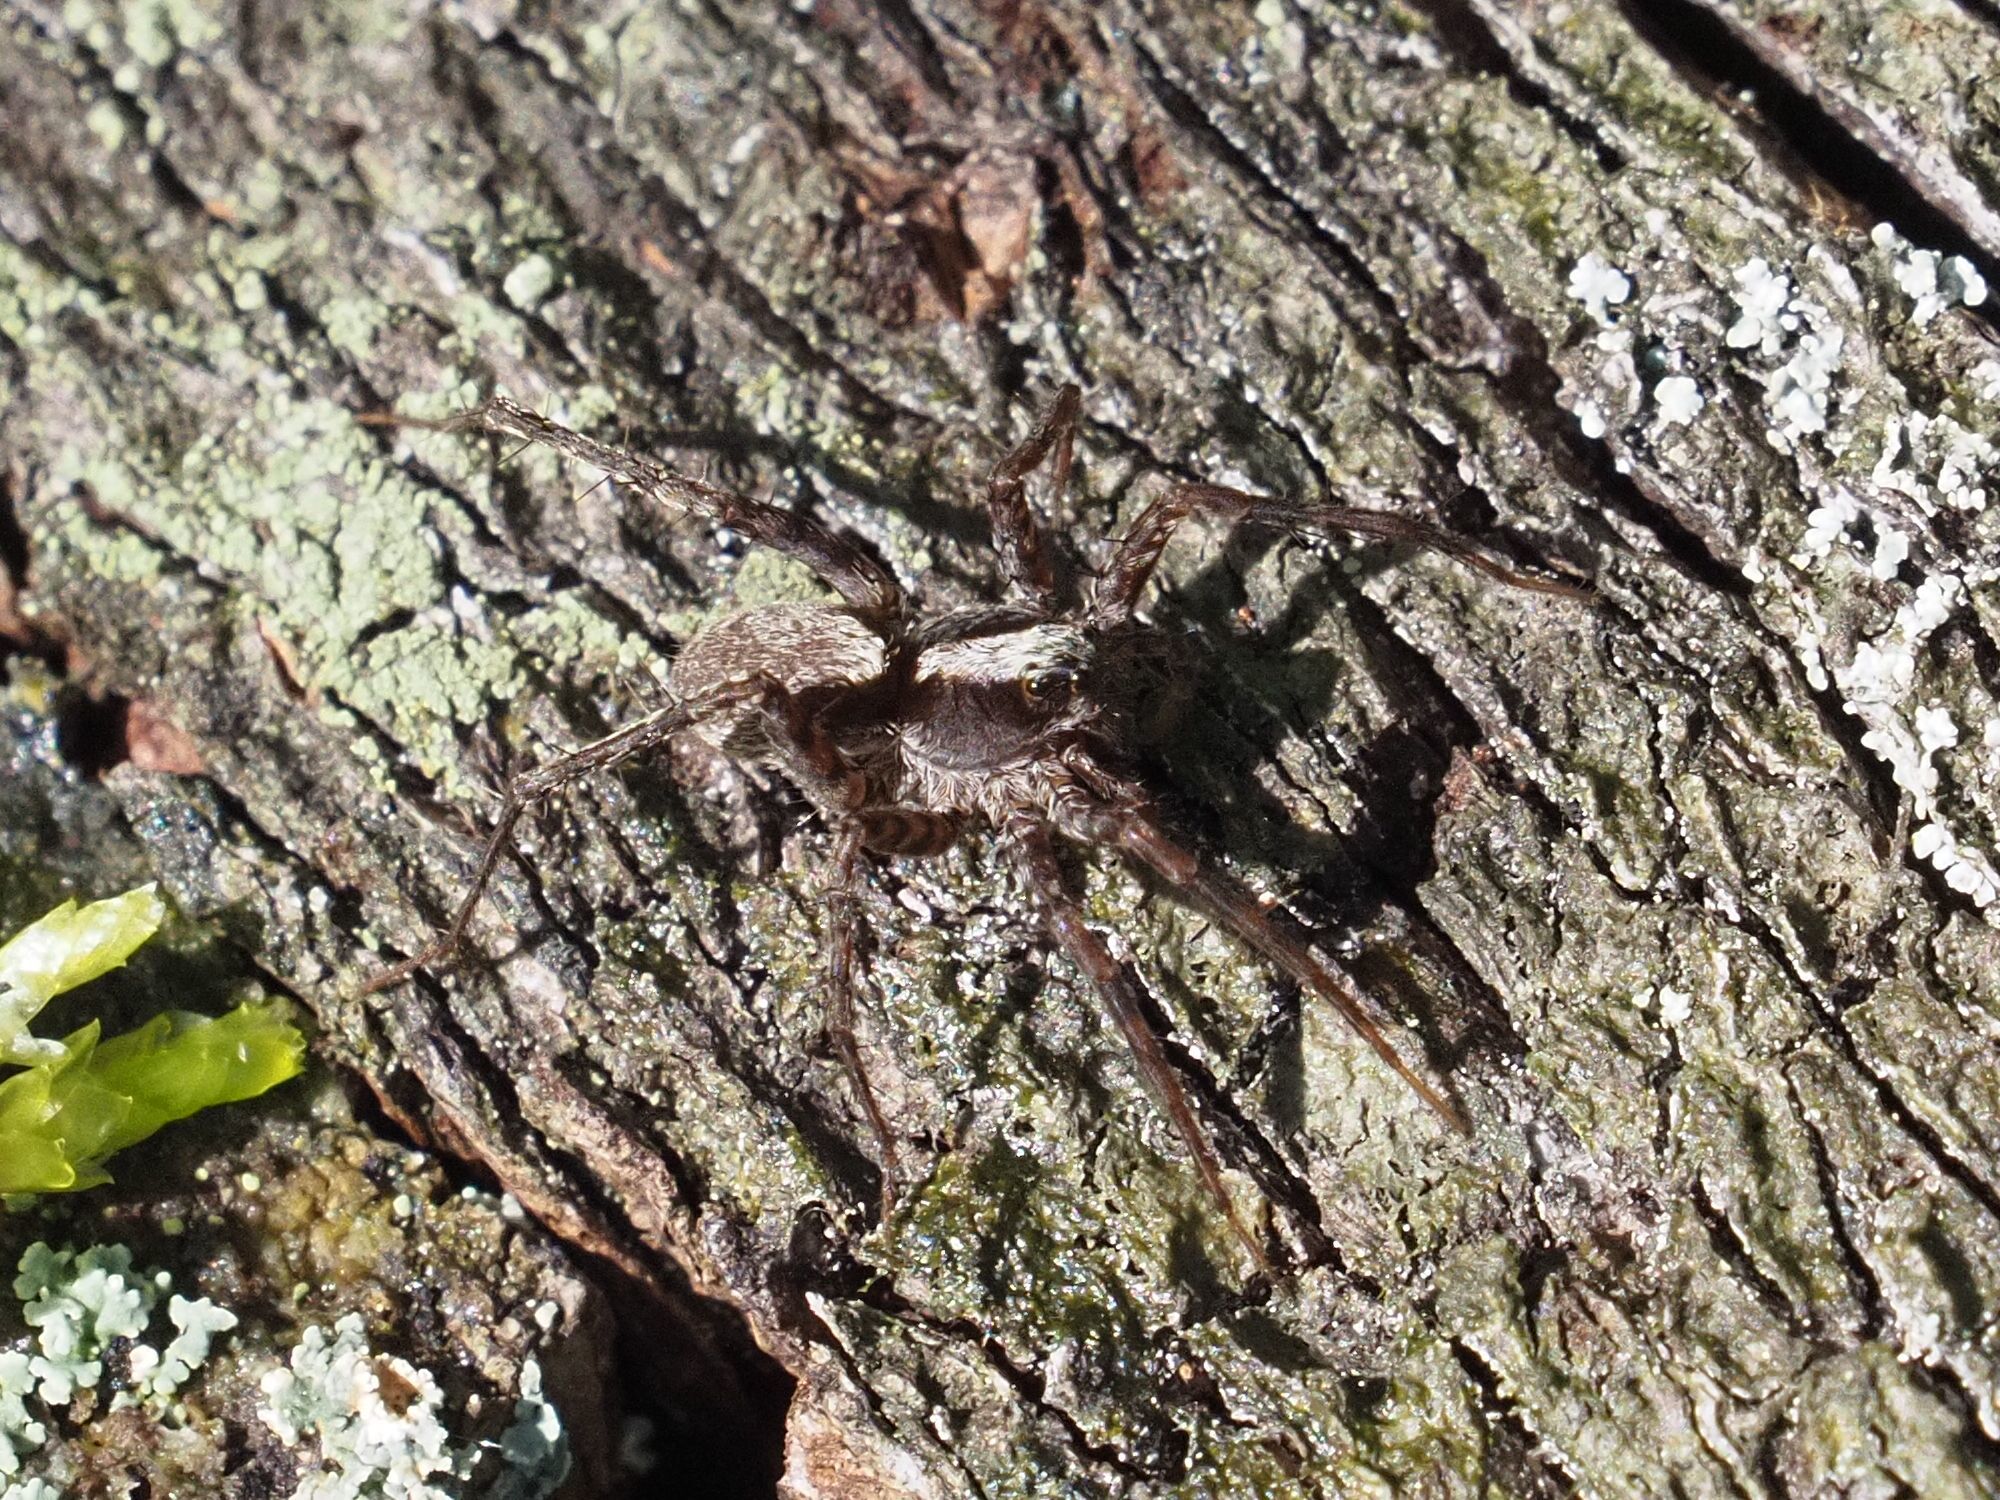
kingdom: Animalia
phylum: Arthropoda
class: Arachnida
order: Araneae
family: Lycosidae
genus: Pardosa
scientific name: Pardosa
